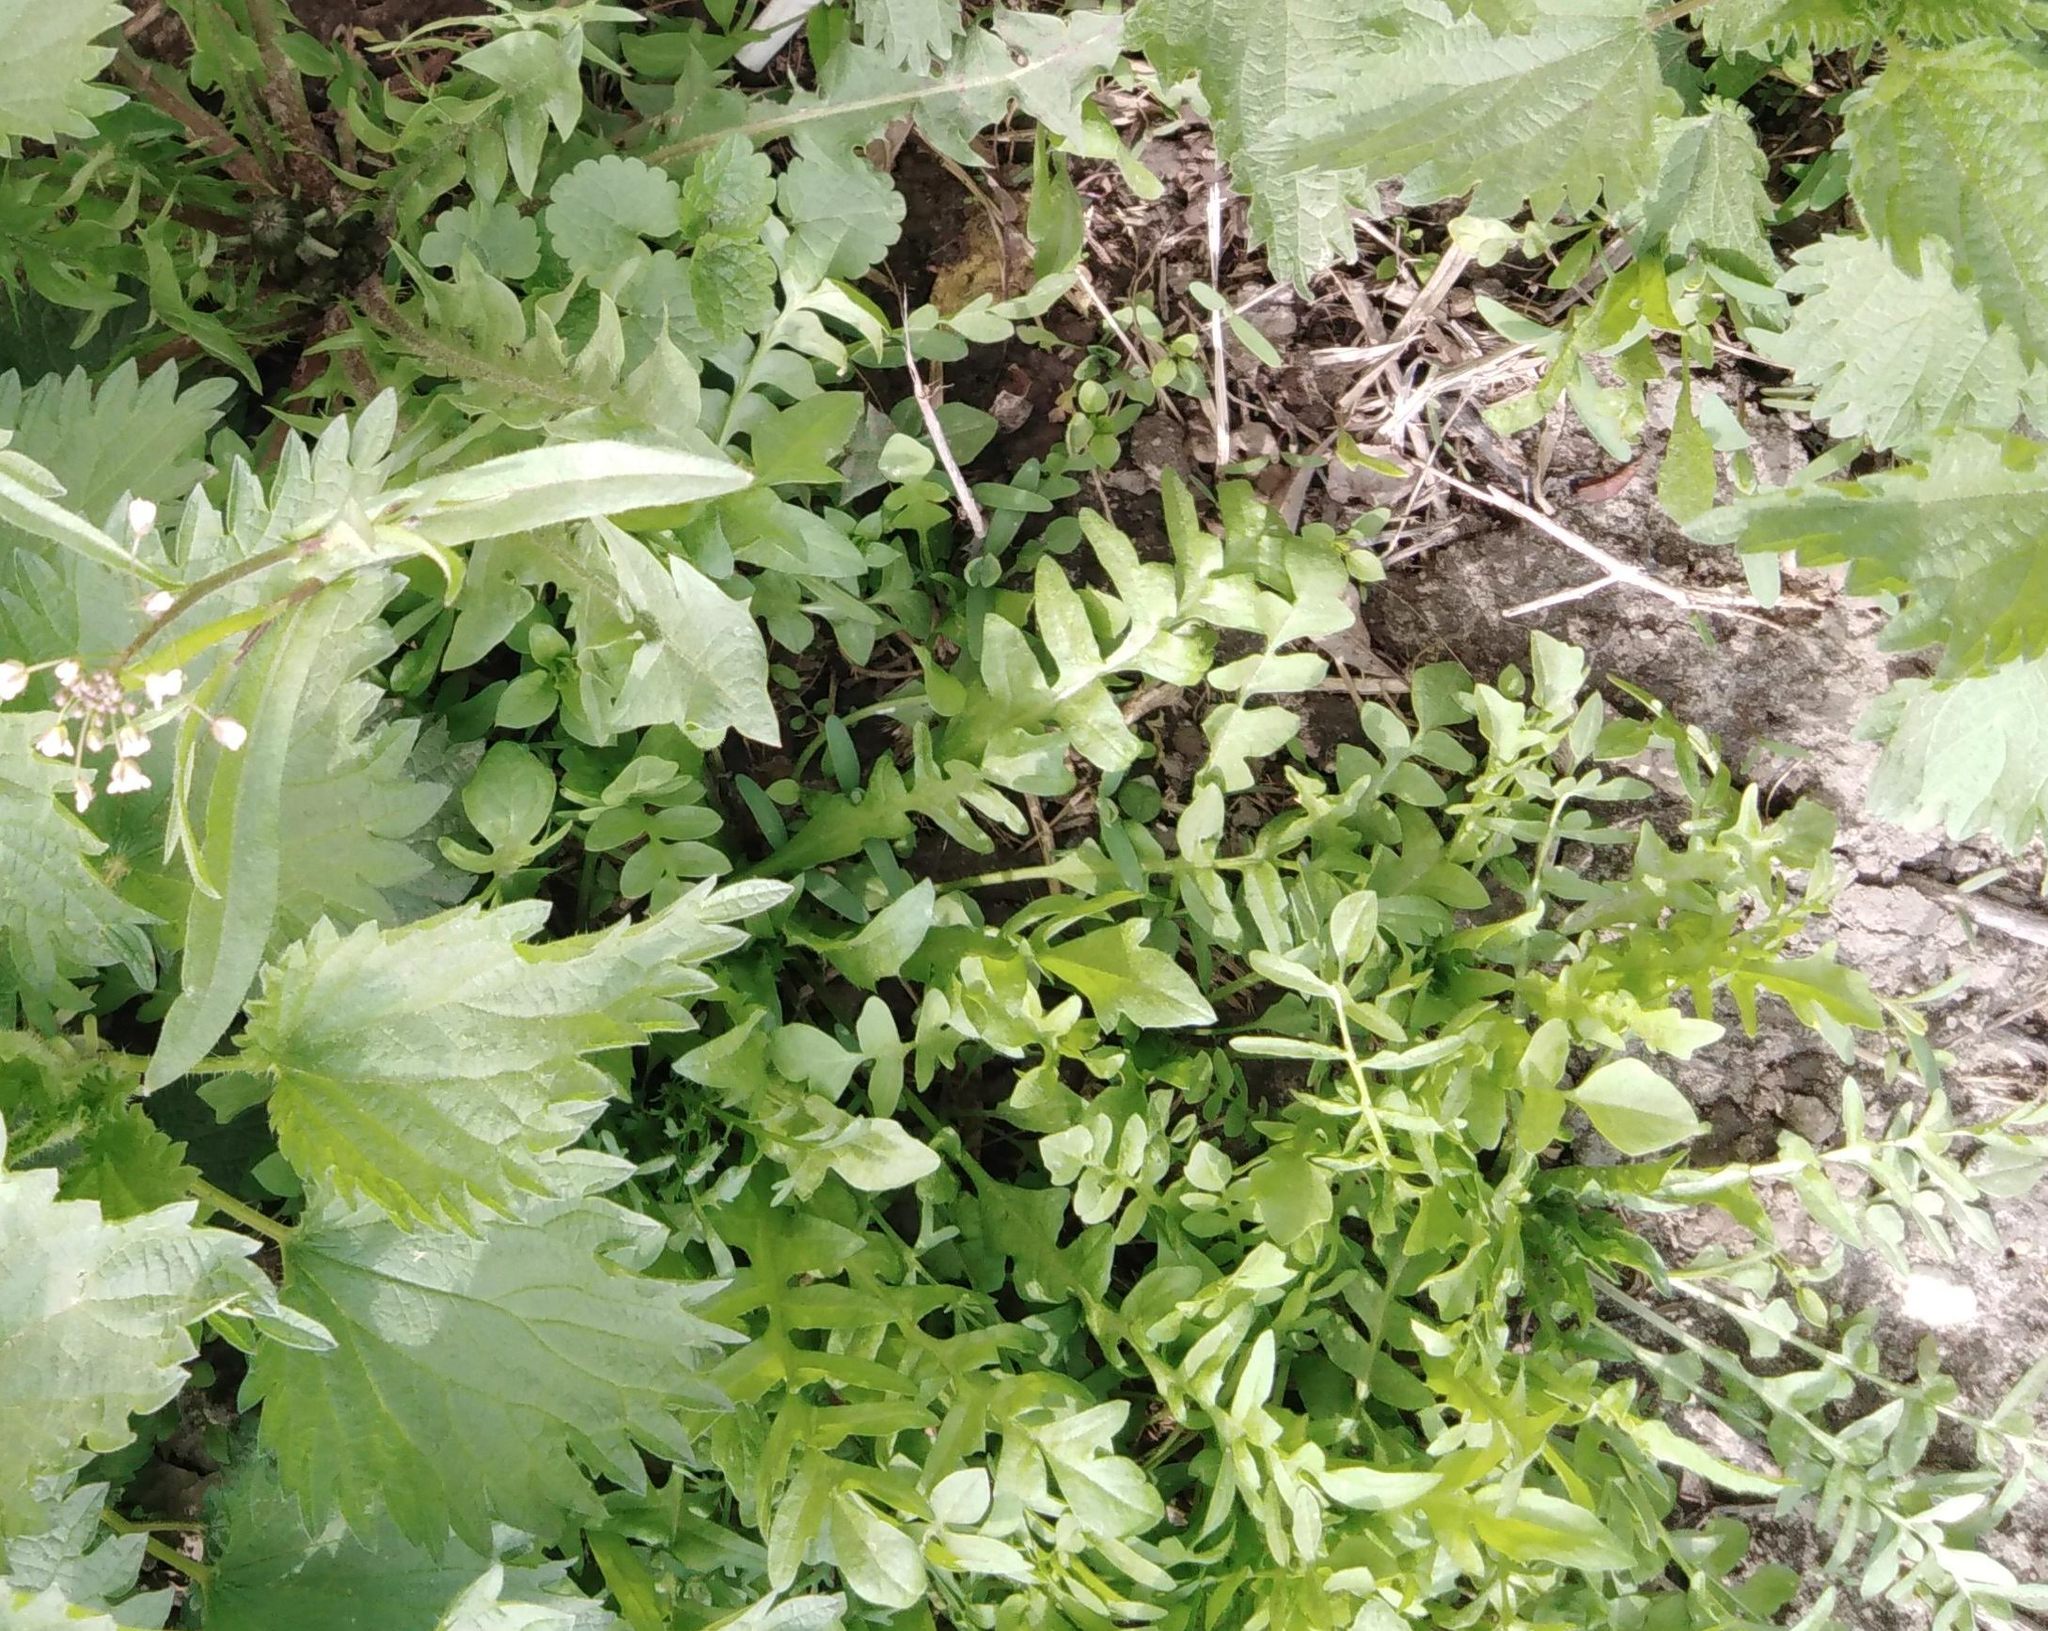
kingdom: Plantae
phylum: Tracheophyta
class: Magnoliopsida
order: Brassicales
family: Brassicaceae
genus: Capsella
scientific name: Capsella bursa-pastoris
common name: Shepherd's purse
